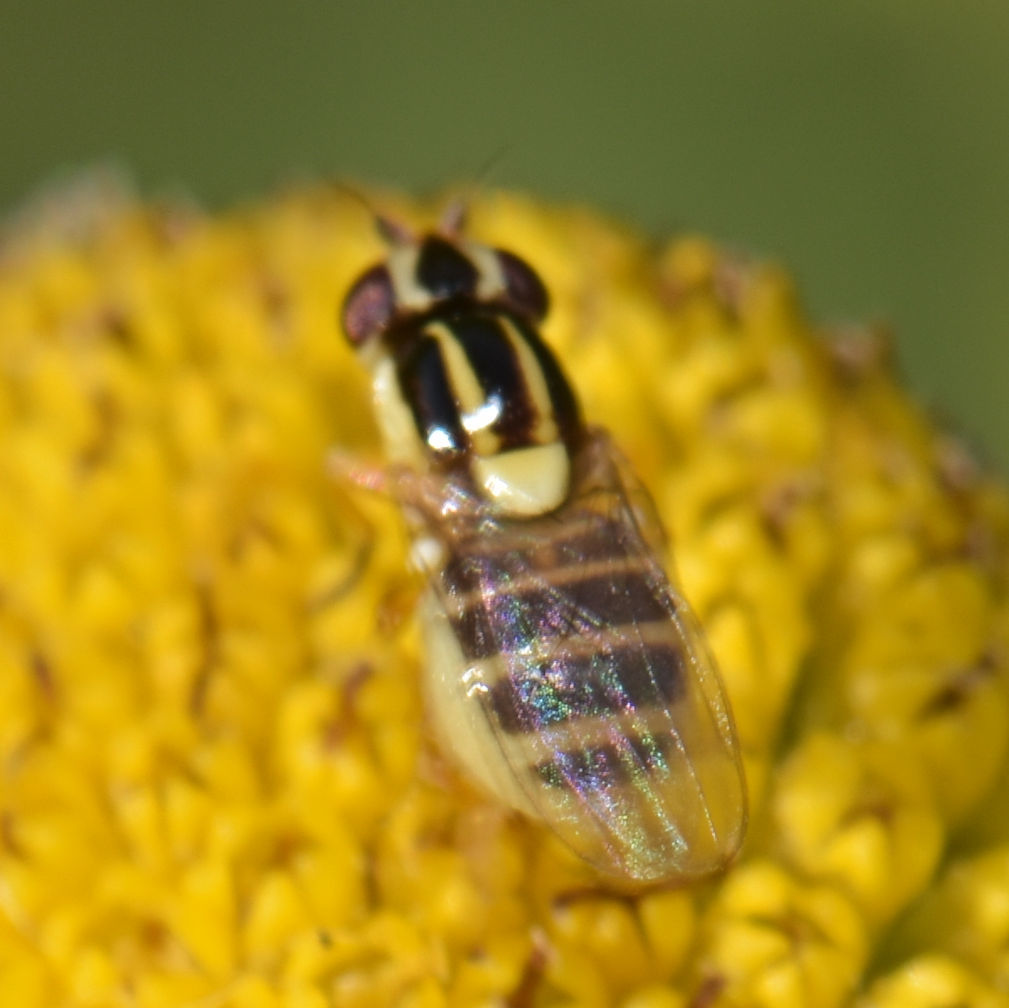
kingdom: Animalia
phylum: Arthropoda
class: Insecta
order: Diptera
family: Chloropidae
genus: Thaumatomyia
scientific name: Thaumatomyia glabra
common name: Chloropid fly
